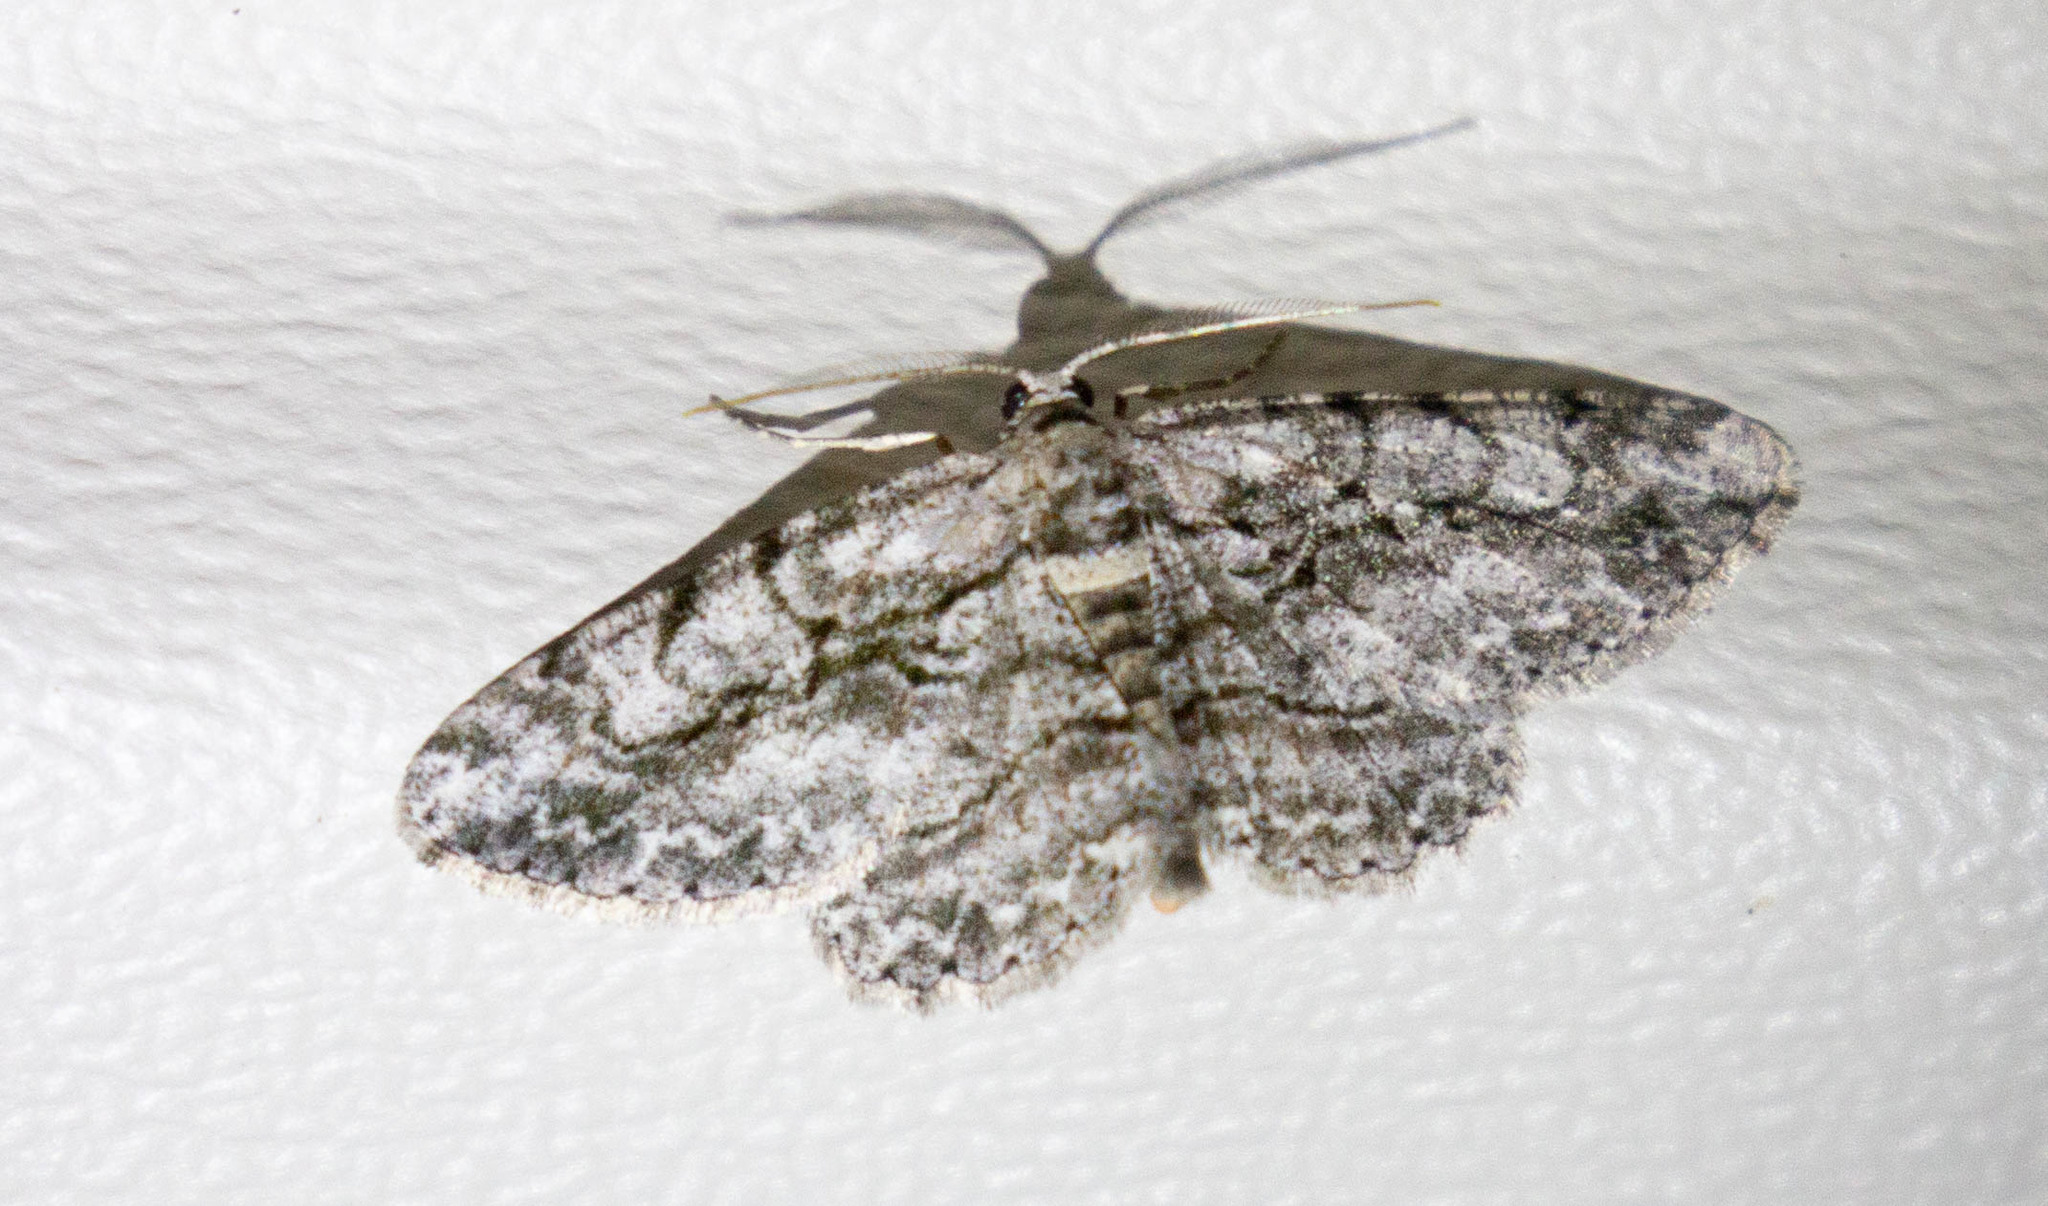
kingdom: Animalia
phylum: Arthropoda
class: Insecta
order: Lepidoptera
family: Geometridae
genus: Anavitrinella
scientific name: Anavitrinella pampinaria
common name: Common gray
